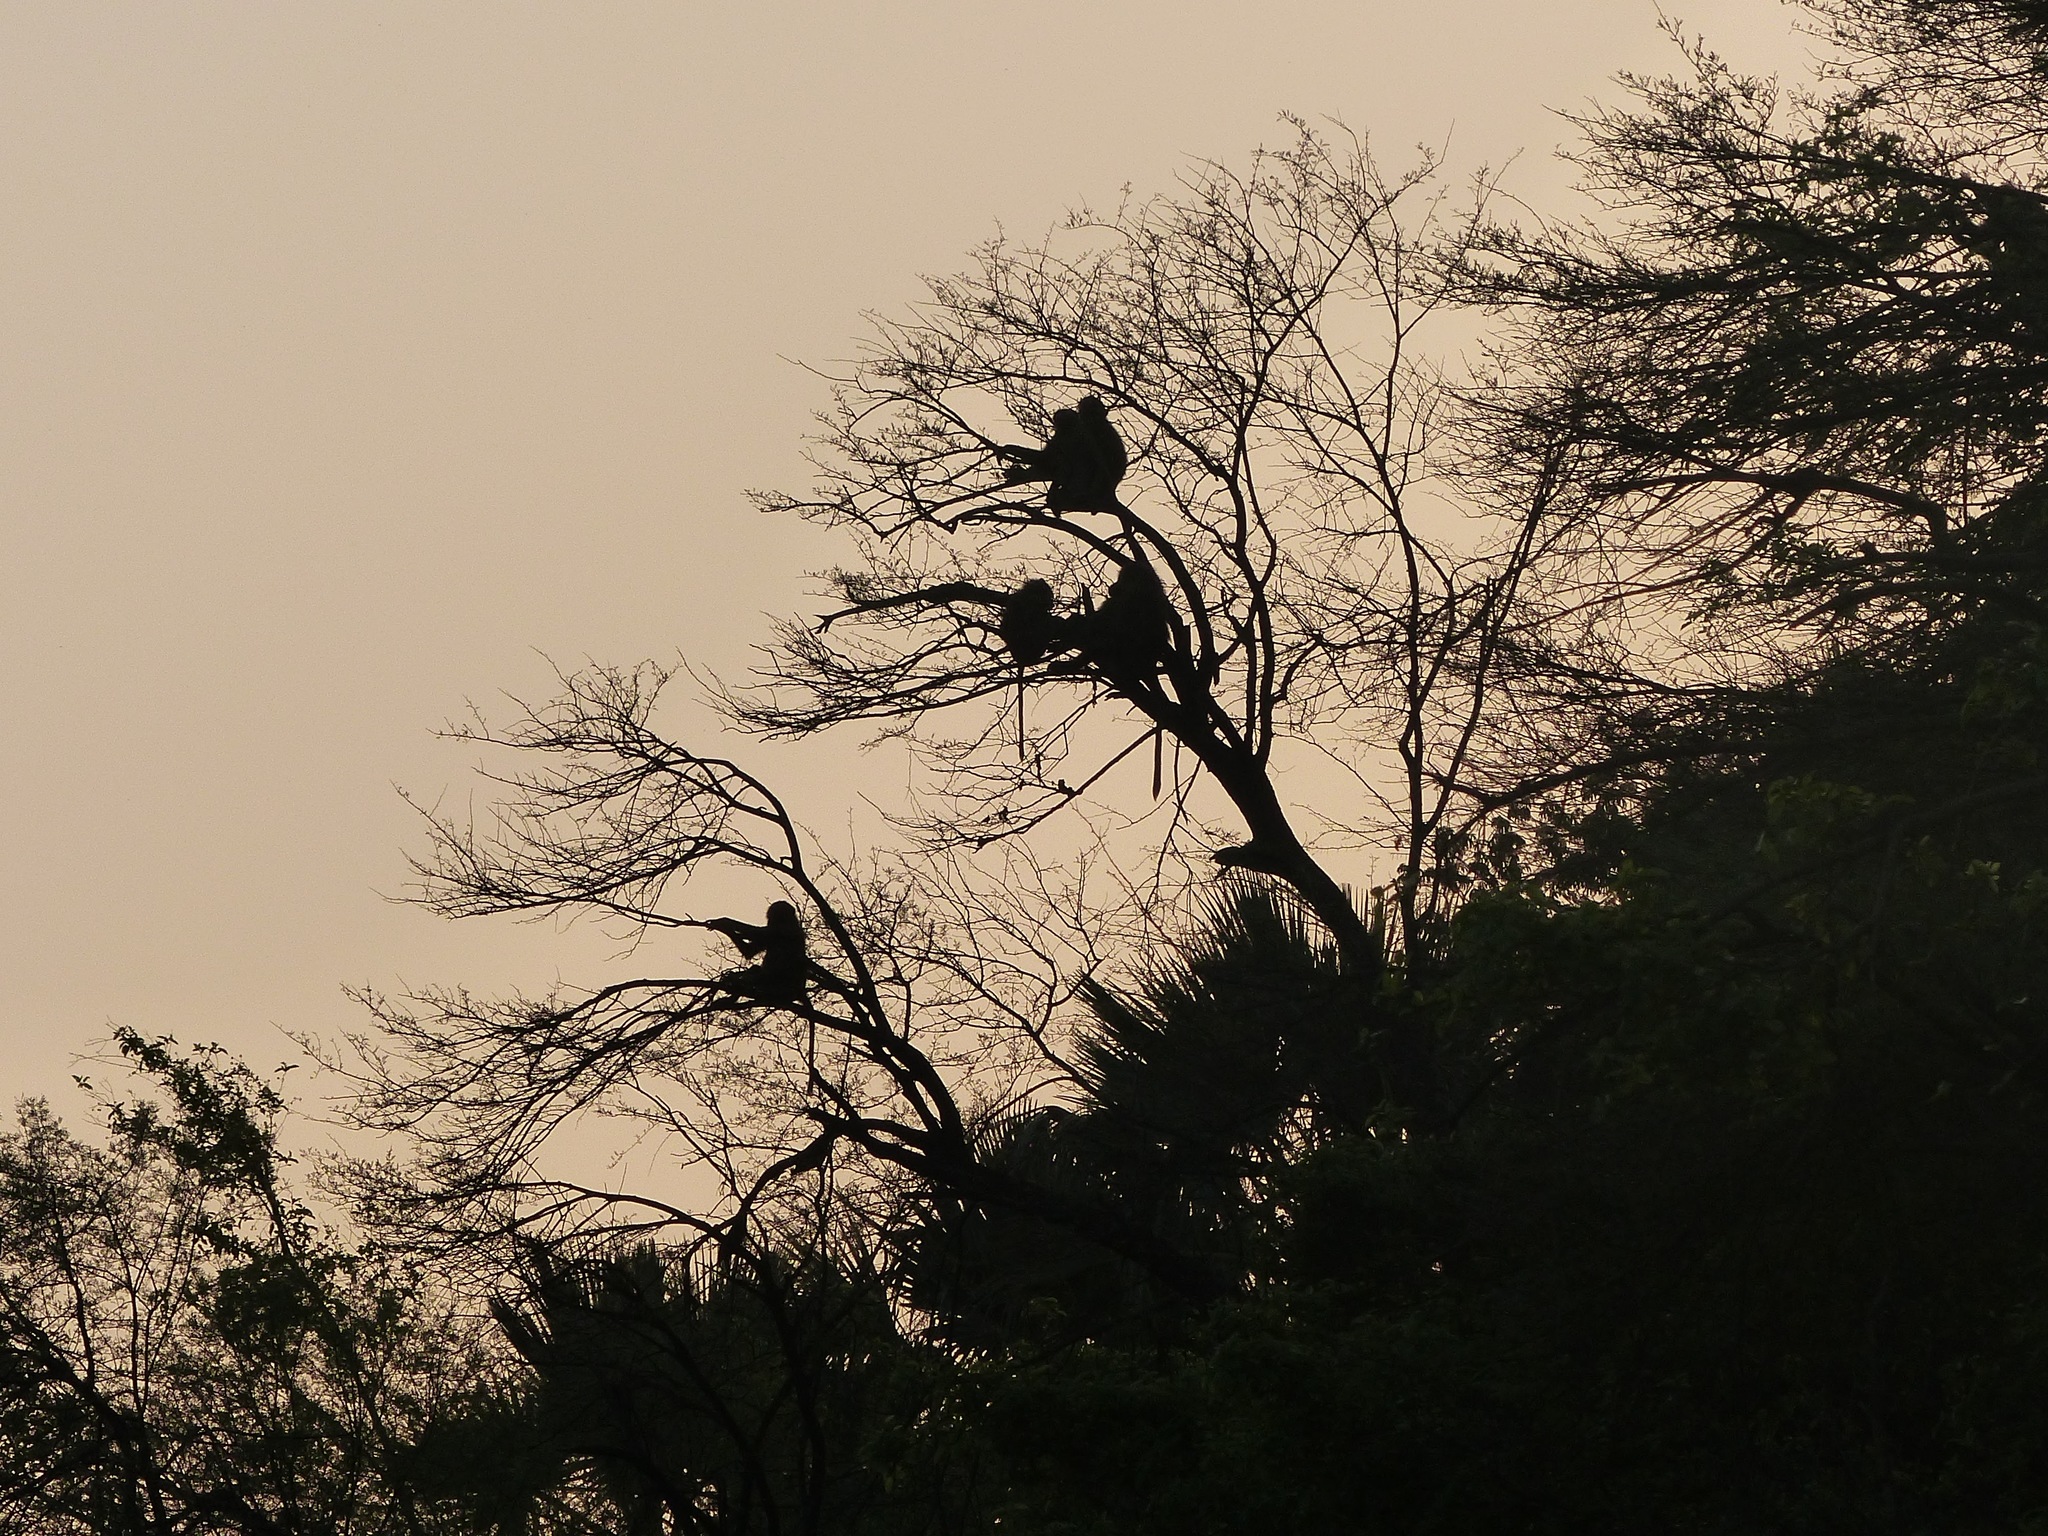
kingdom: Animalia
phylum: Chordata
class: Mammalia
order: Primates
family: Cercopithecidae
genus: Papio
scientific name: Papio papio
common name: Guinea baboon
